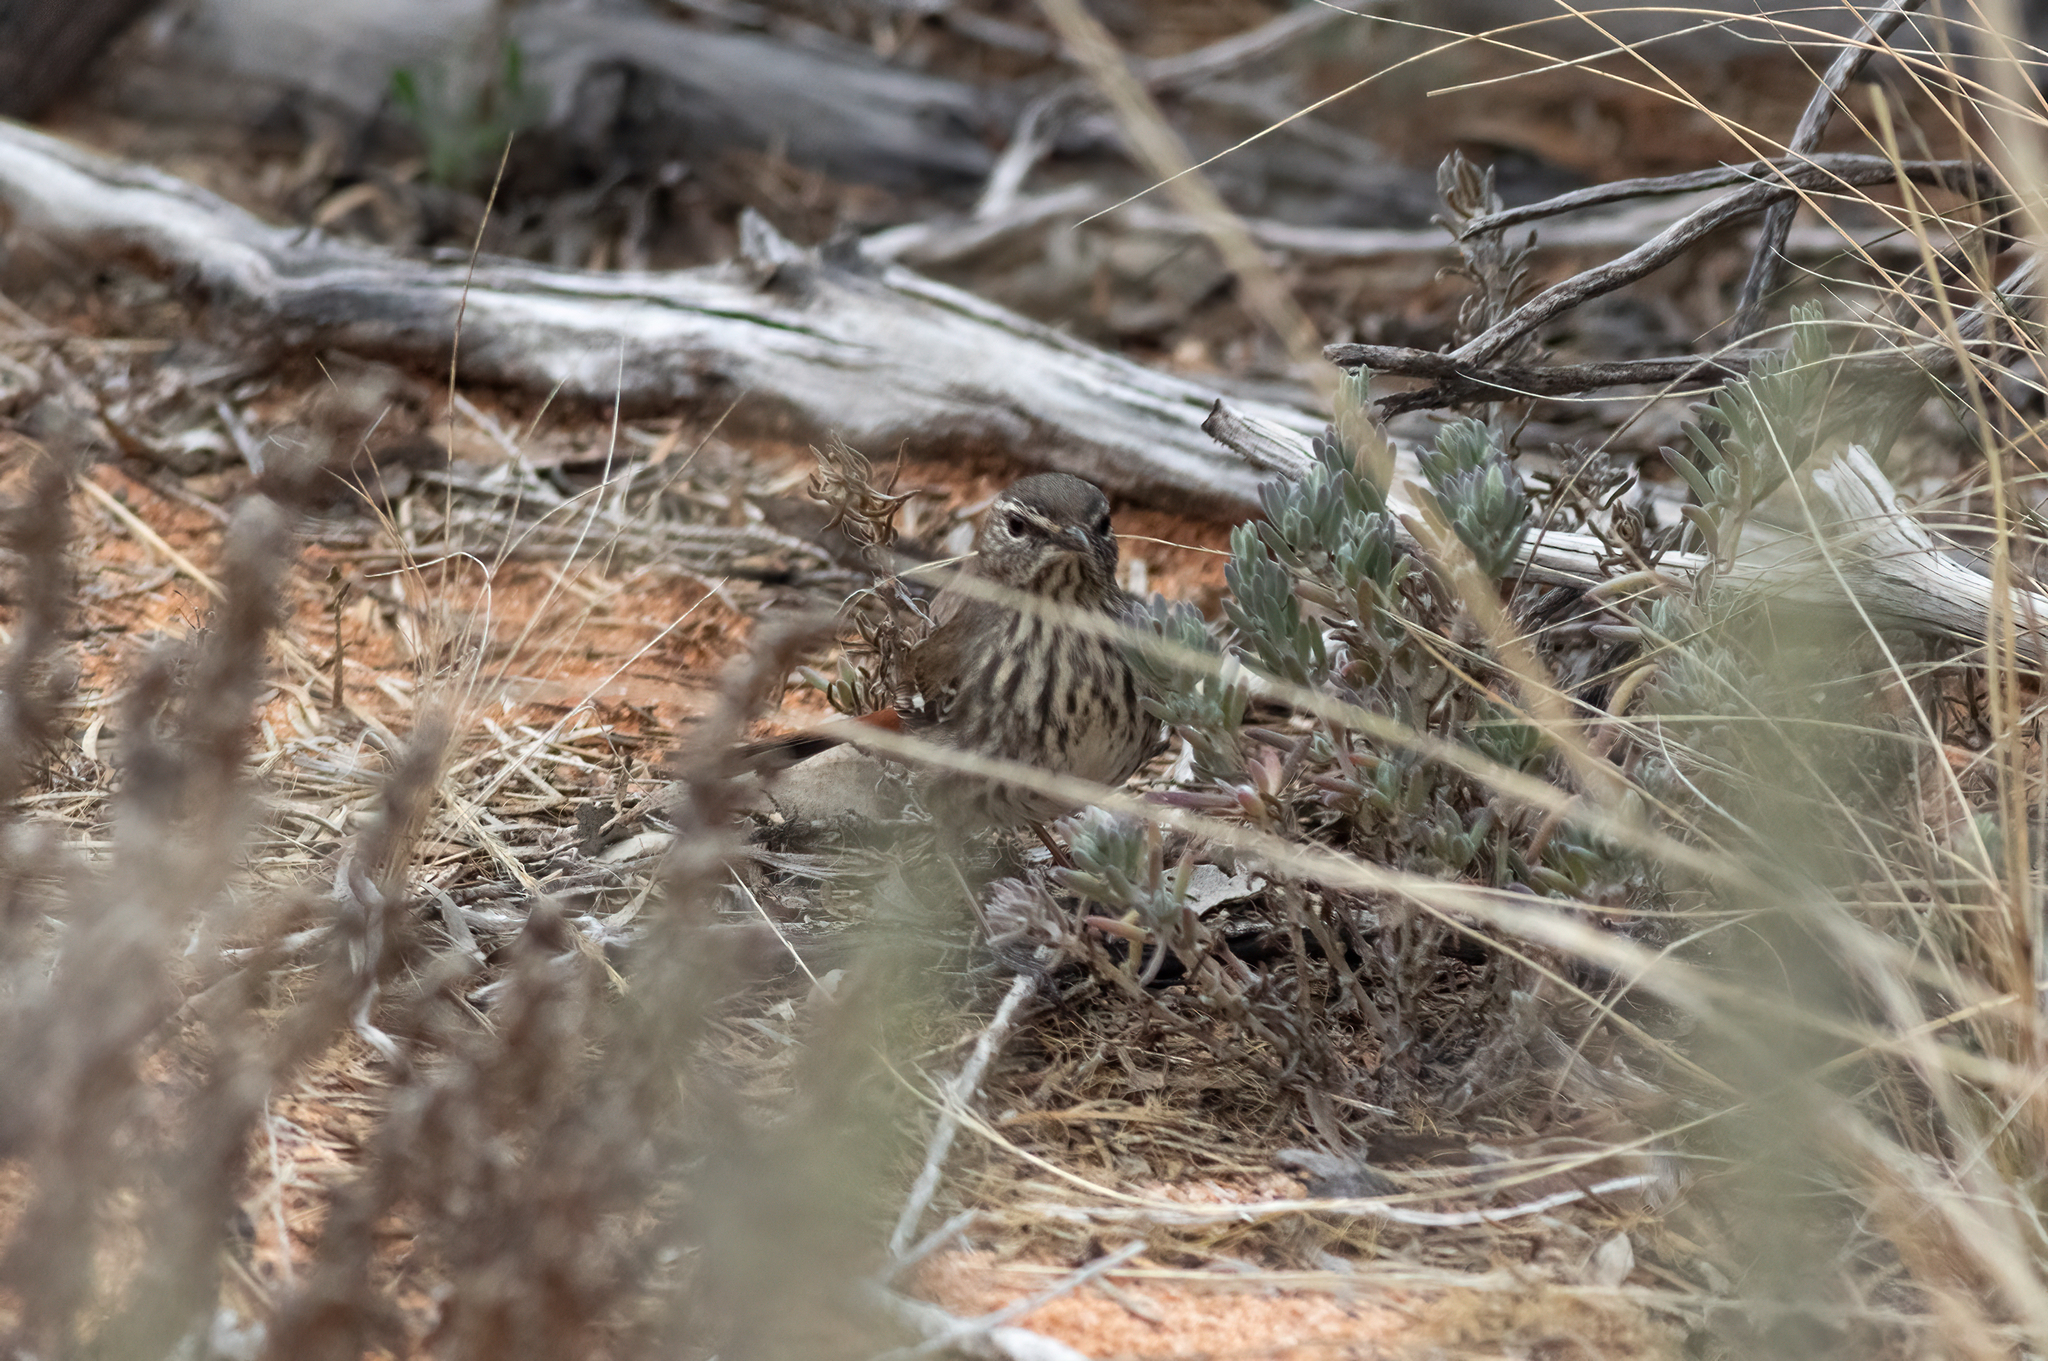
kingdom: Animalia
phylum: Chordata
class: Aves
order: Passeriformes
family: Acanthizidae
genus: Calamanthus
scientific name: Calamanthus cautus
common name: Shy heathwren
